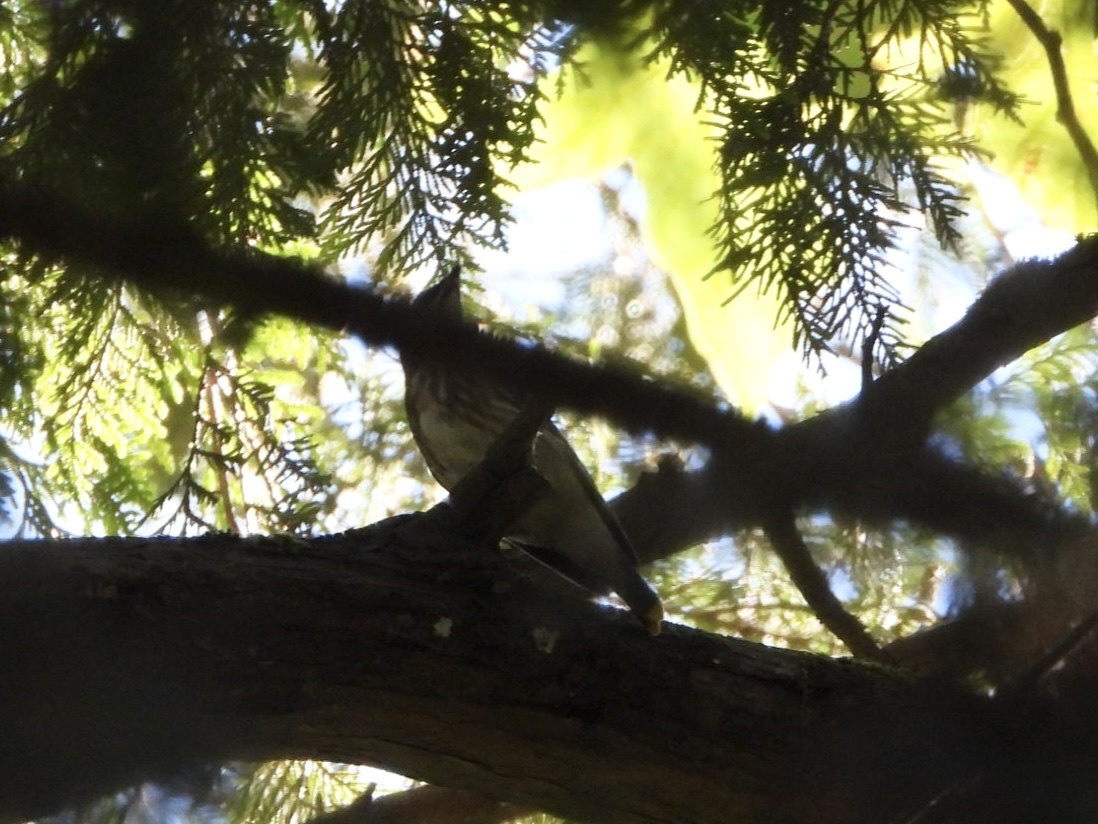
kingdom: Animalia
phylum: Chordata
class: Aves
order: Passeriformes
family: Bombycillidae
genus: Bombycilla
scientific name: Bombycilla cedrorum
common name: Cedar waxwing
